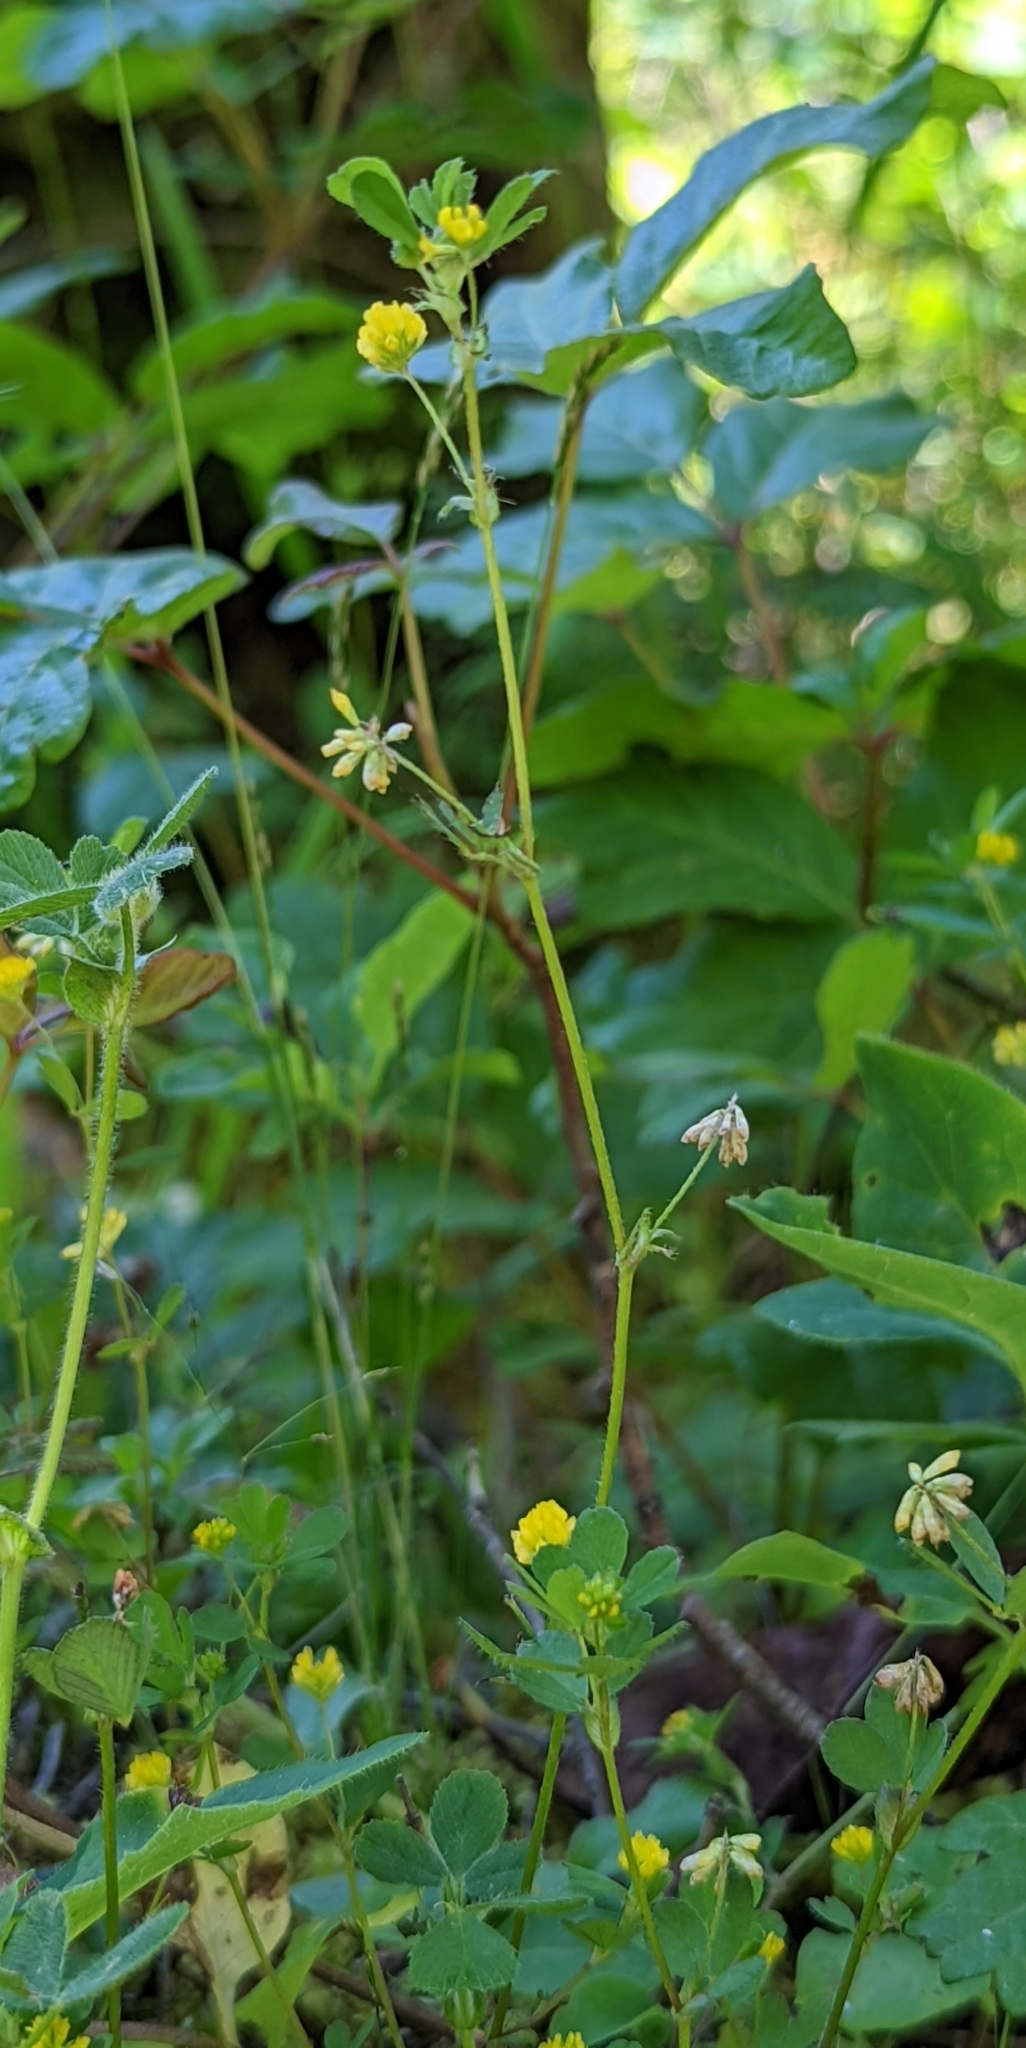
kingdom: Plantae
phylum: Tracheophyta
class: Magnoliopsida
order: Fabales
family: Fabaceae
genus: Trifolium
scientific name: Trifolium dubium
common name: Suckling clover
